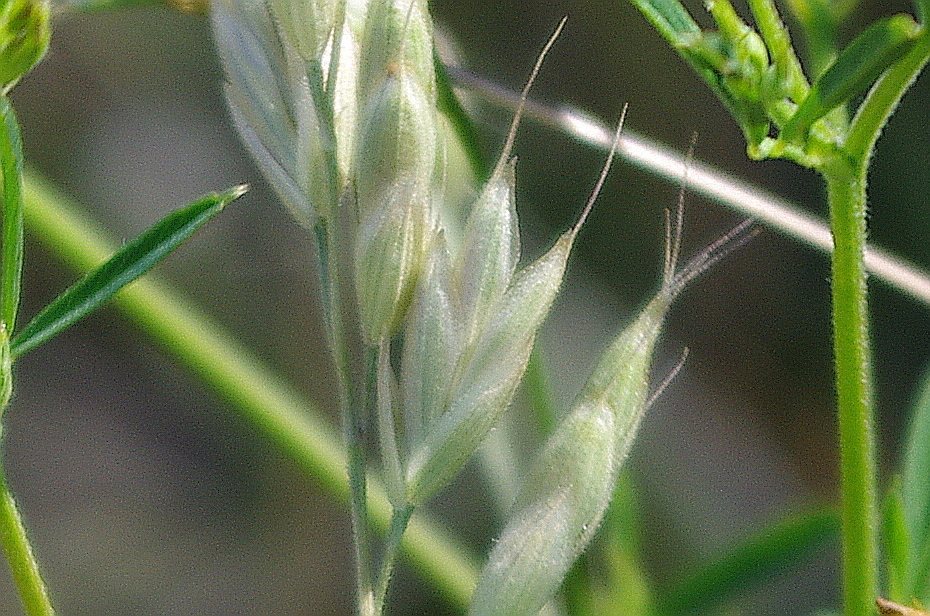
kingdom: Plantae
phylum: Tracheophyta
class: Liliopsida
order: Poales
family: Poaceae
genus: Bromus
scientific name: Bromus hordeaceus
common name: Soft brome
